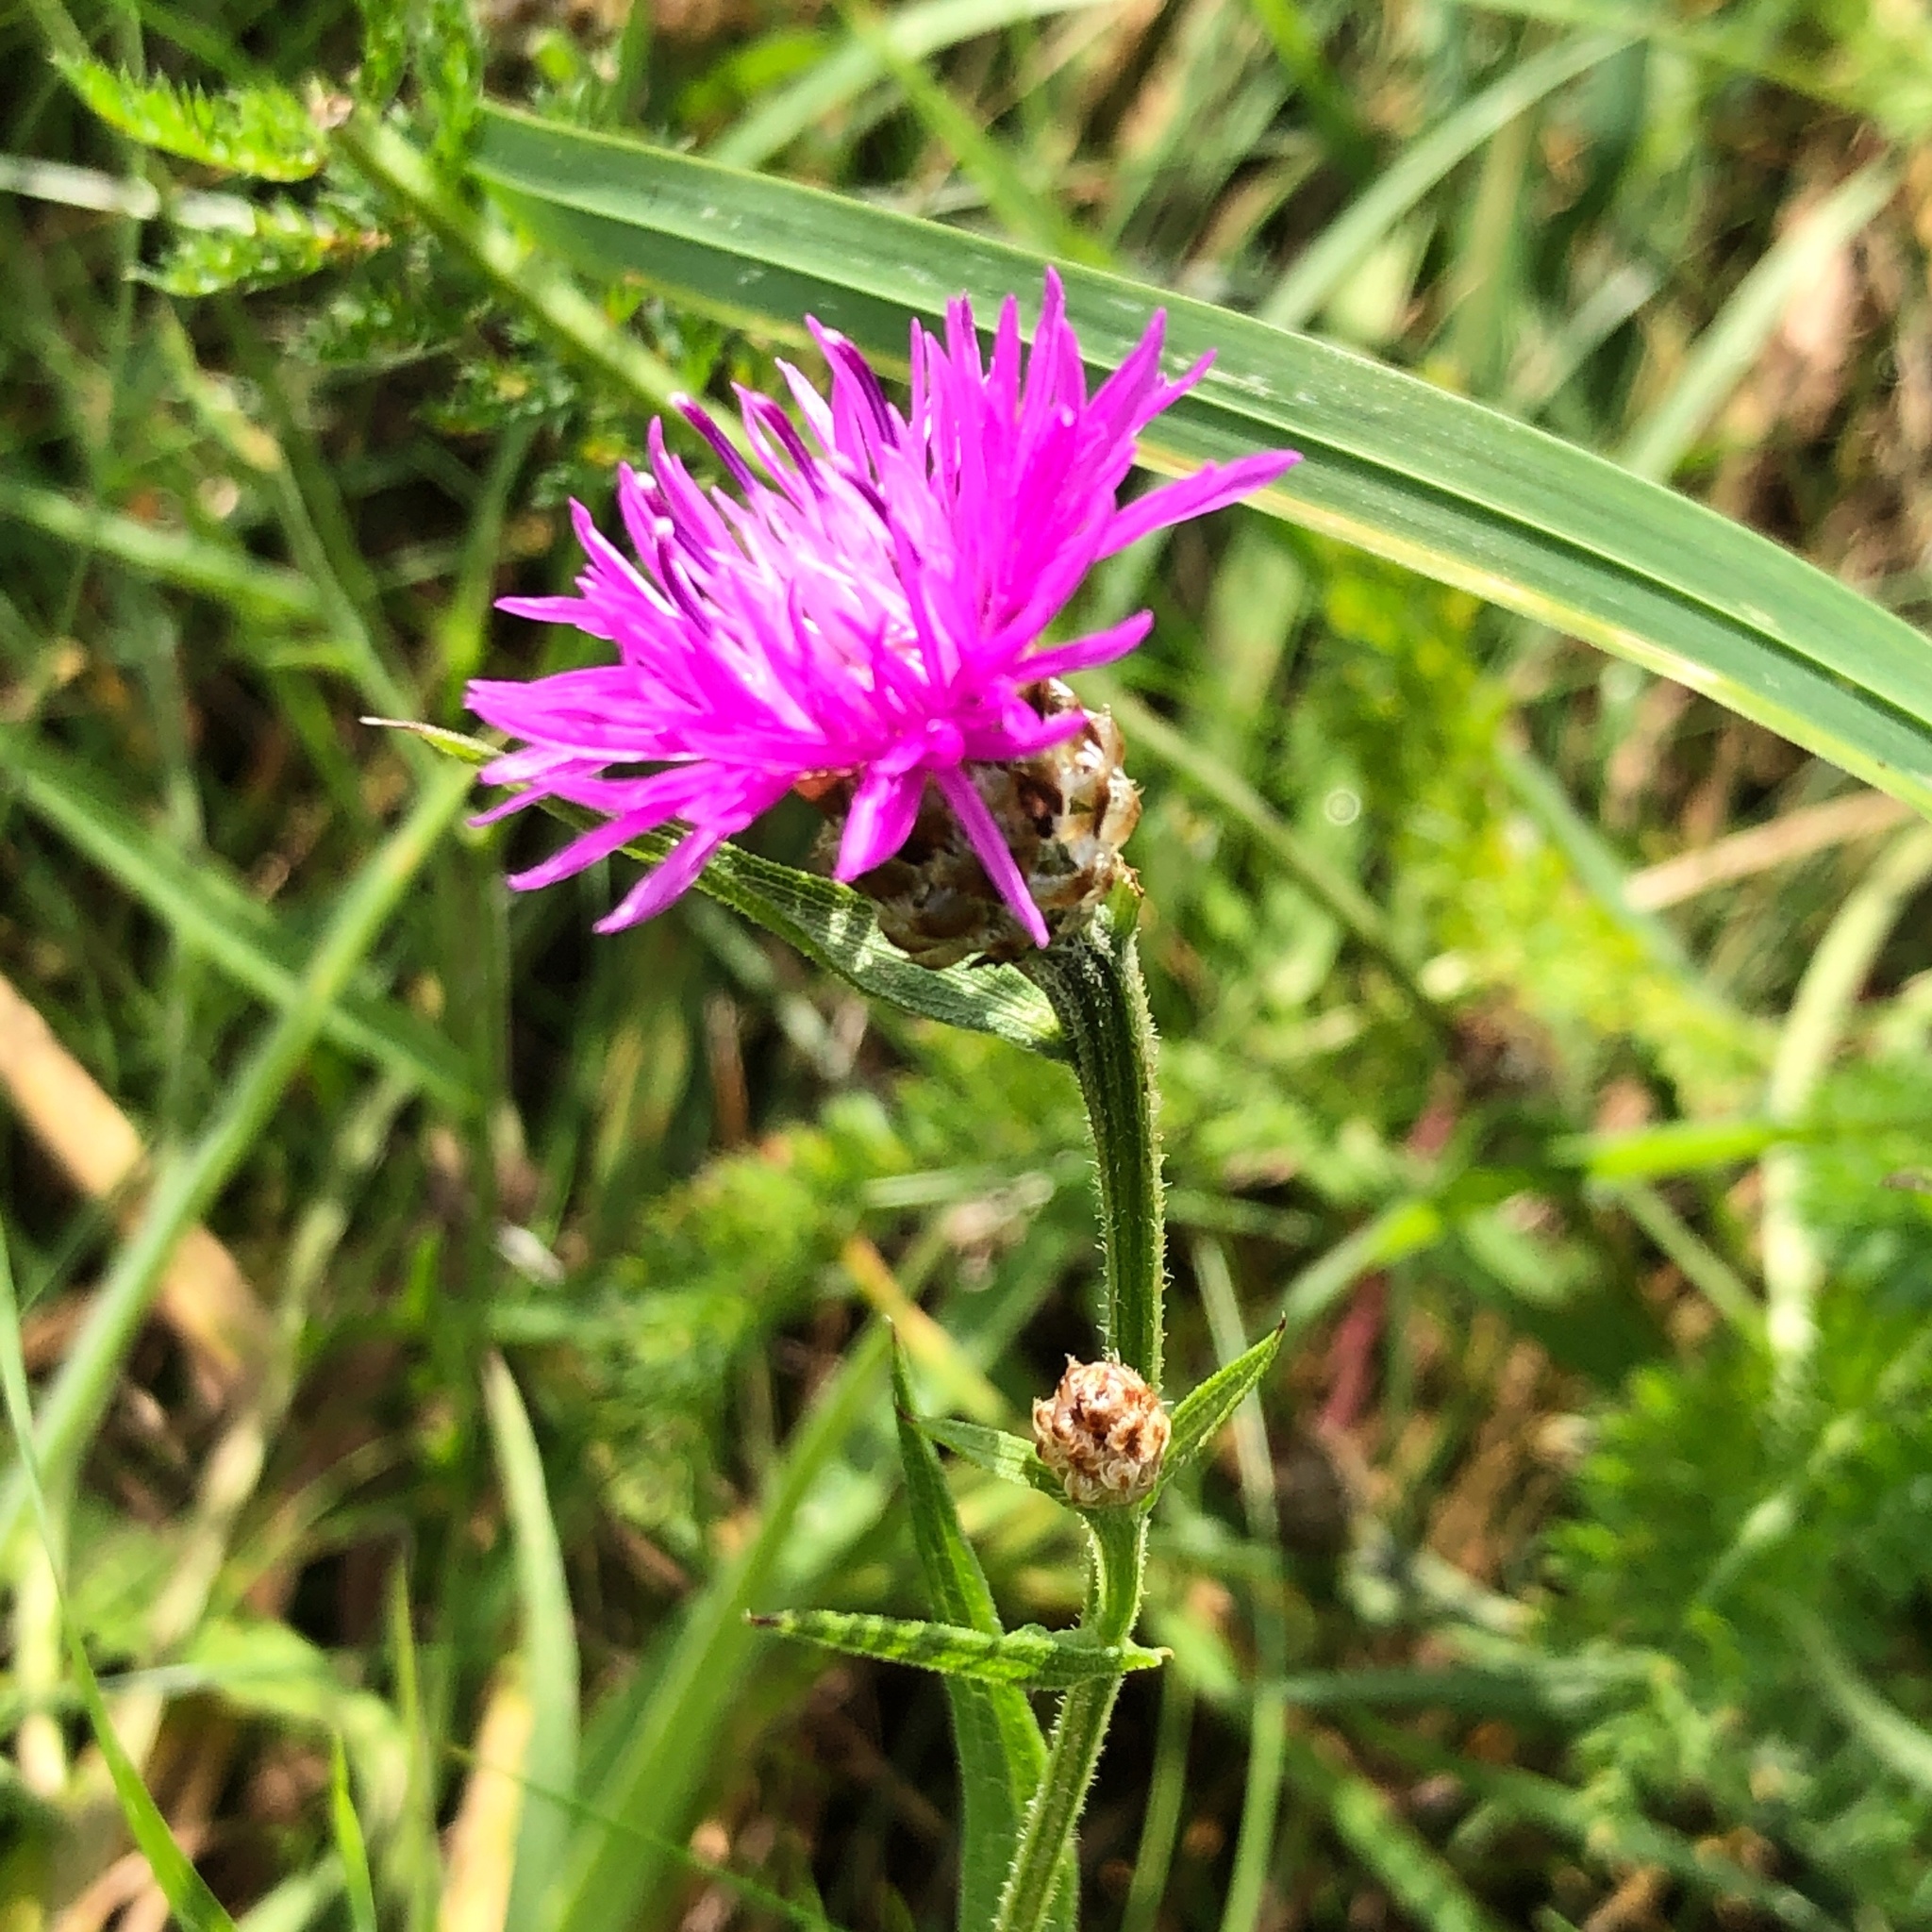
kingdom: Plantae
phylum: Tracheophyta
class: Magnoliopsida
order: Asterales
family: Asteraceae
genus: Centaurea
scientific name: Centaurea jacea
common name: Brown knapweed
